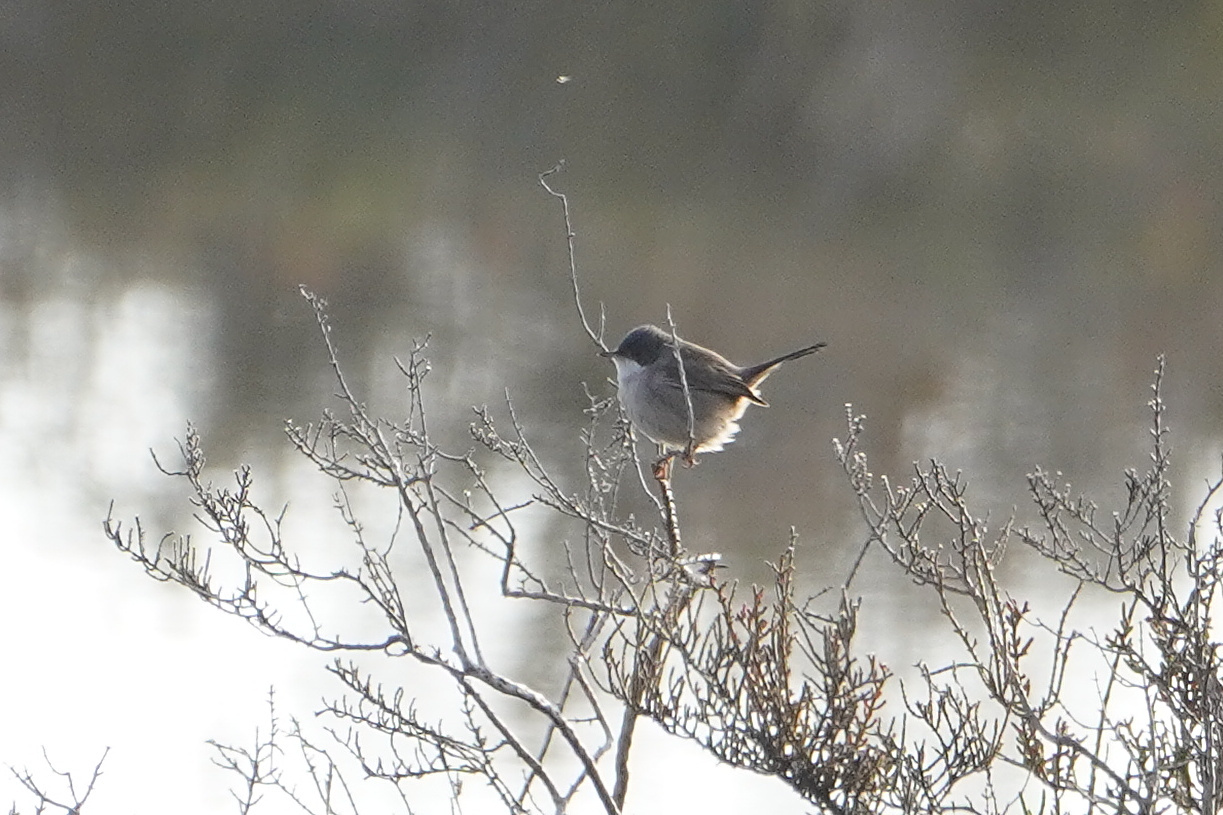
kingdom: Animalia
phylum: Chordata
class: Aves
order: Passeriformes
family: Sylviidae
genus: Curruca
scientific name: Curruca melanocephala
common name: Sardinian warbler
